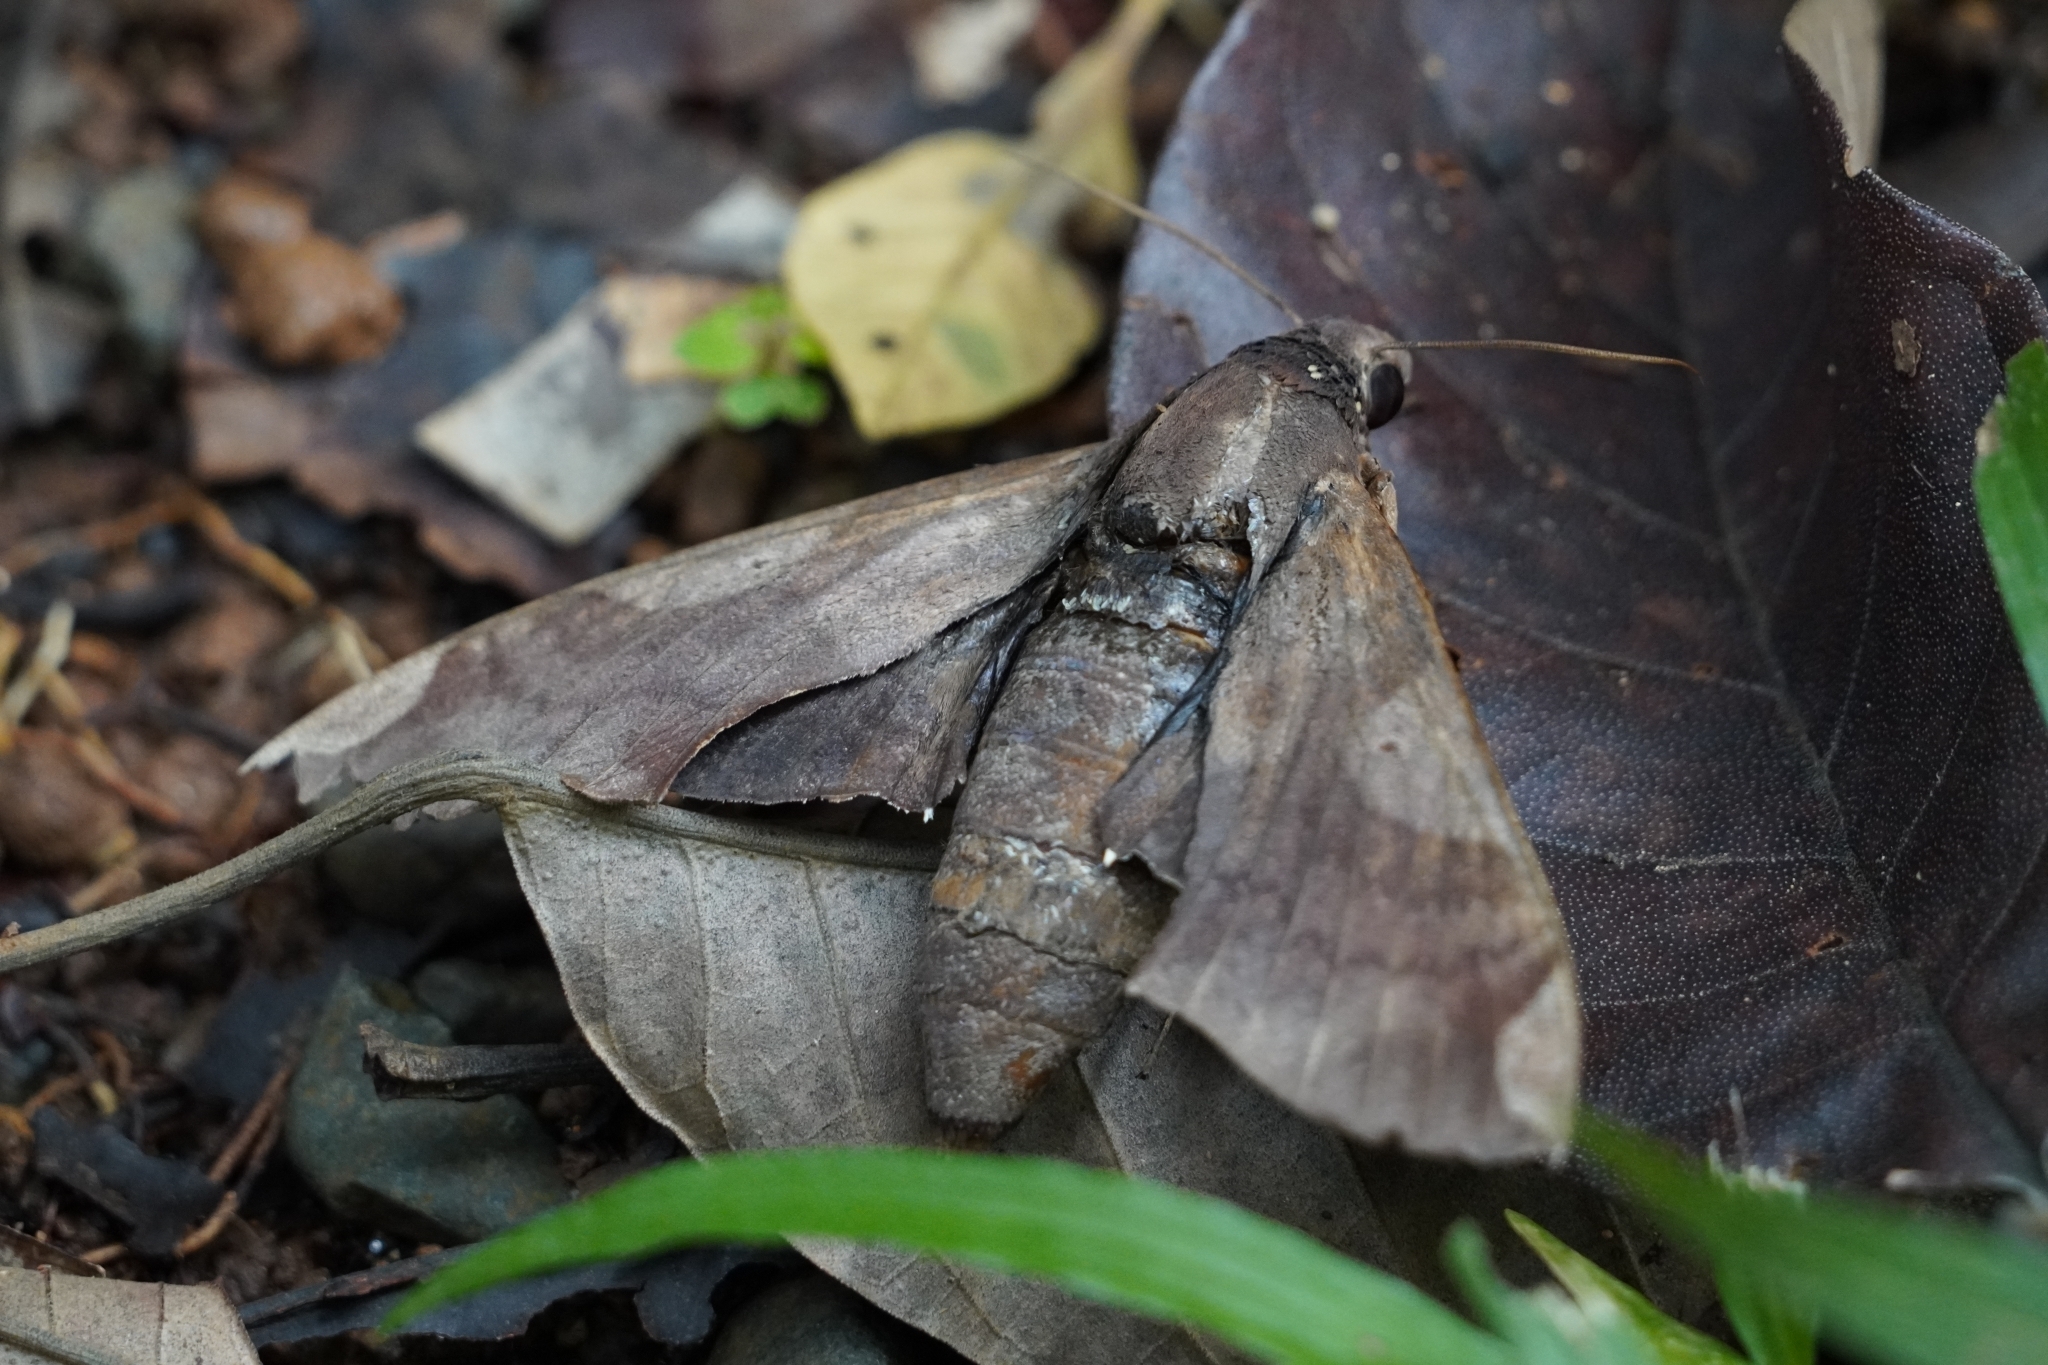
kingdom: Animalia
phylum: Arthropoda
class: Insecta
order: Lepidoptera
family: Sphingidae
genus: Pachylia
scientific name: Pachylia syces
